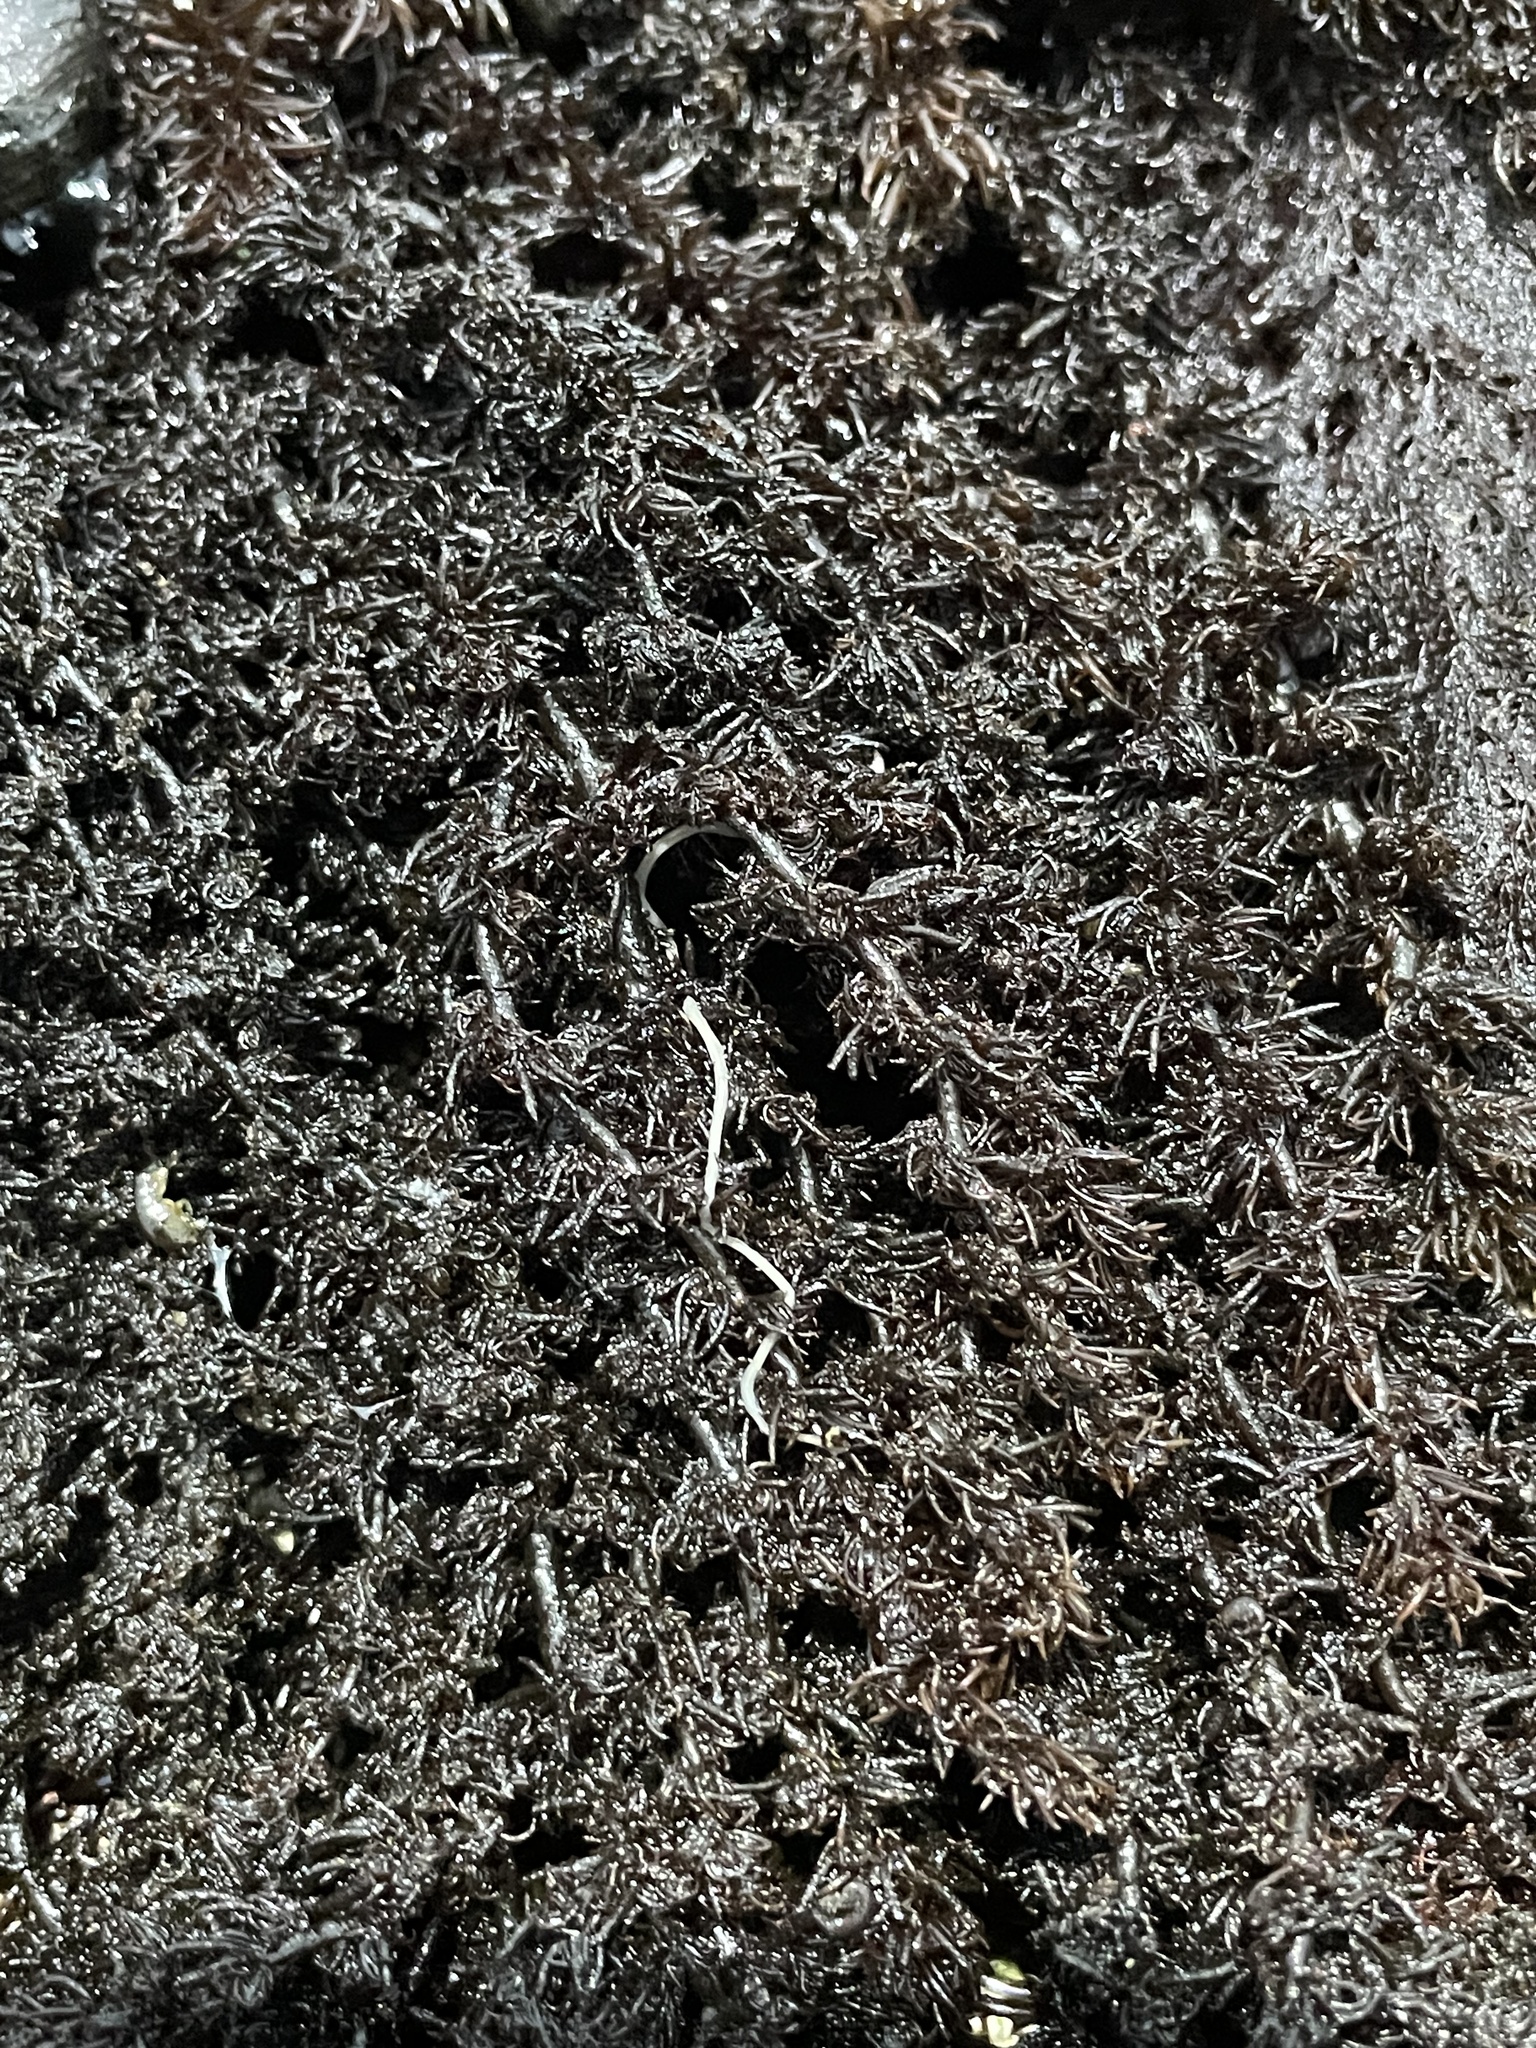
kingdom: Plantae
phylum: Rhodophyta
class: Florideophyceae
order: Ceramiales
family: Rhodomelaceae
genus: Neorhodomela
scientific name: Neorhodomela larix
